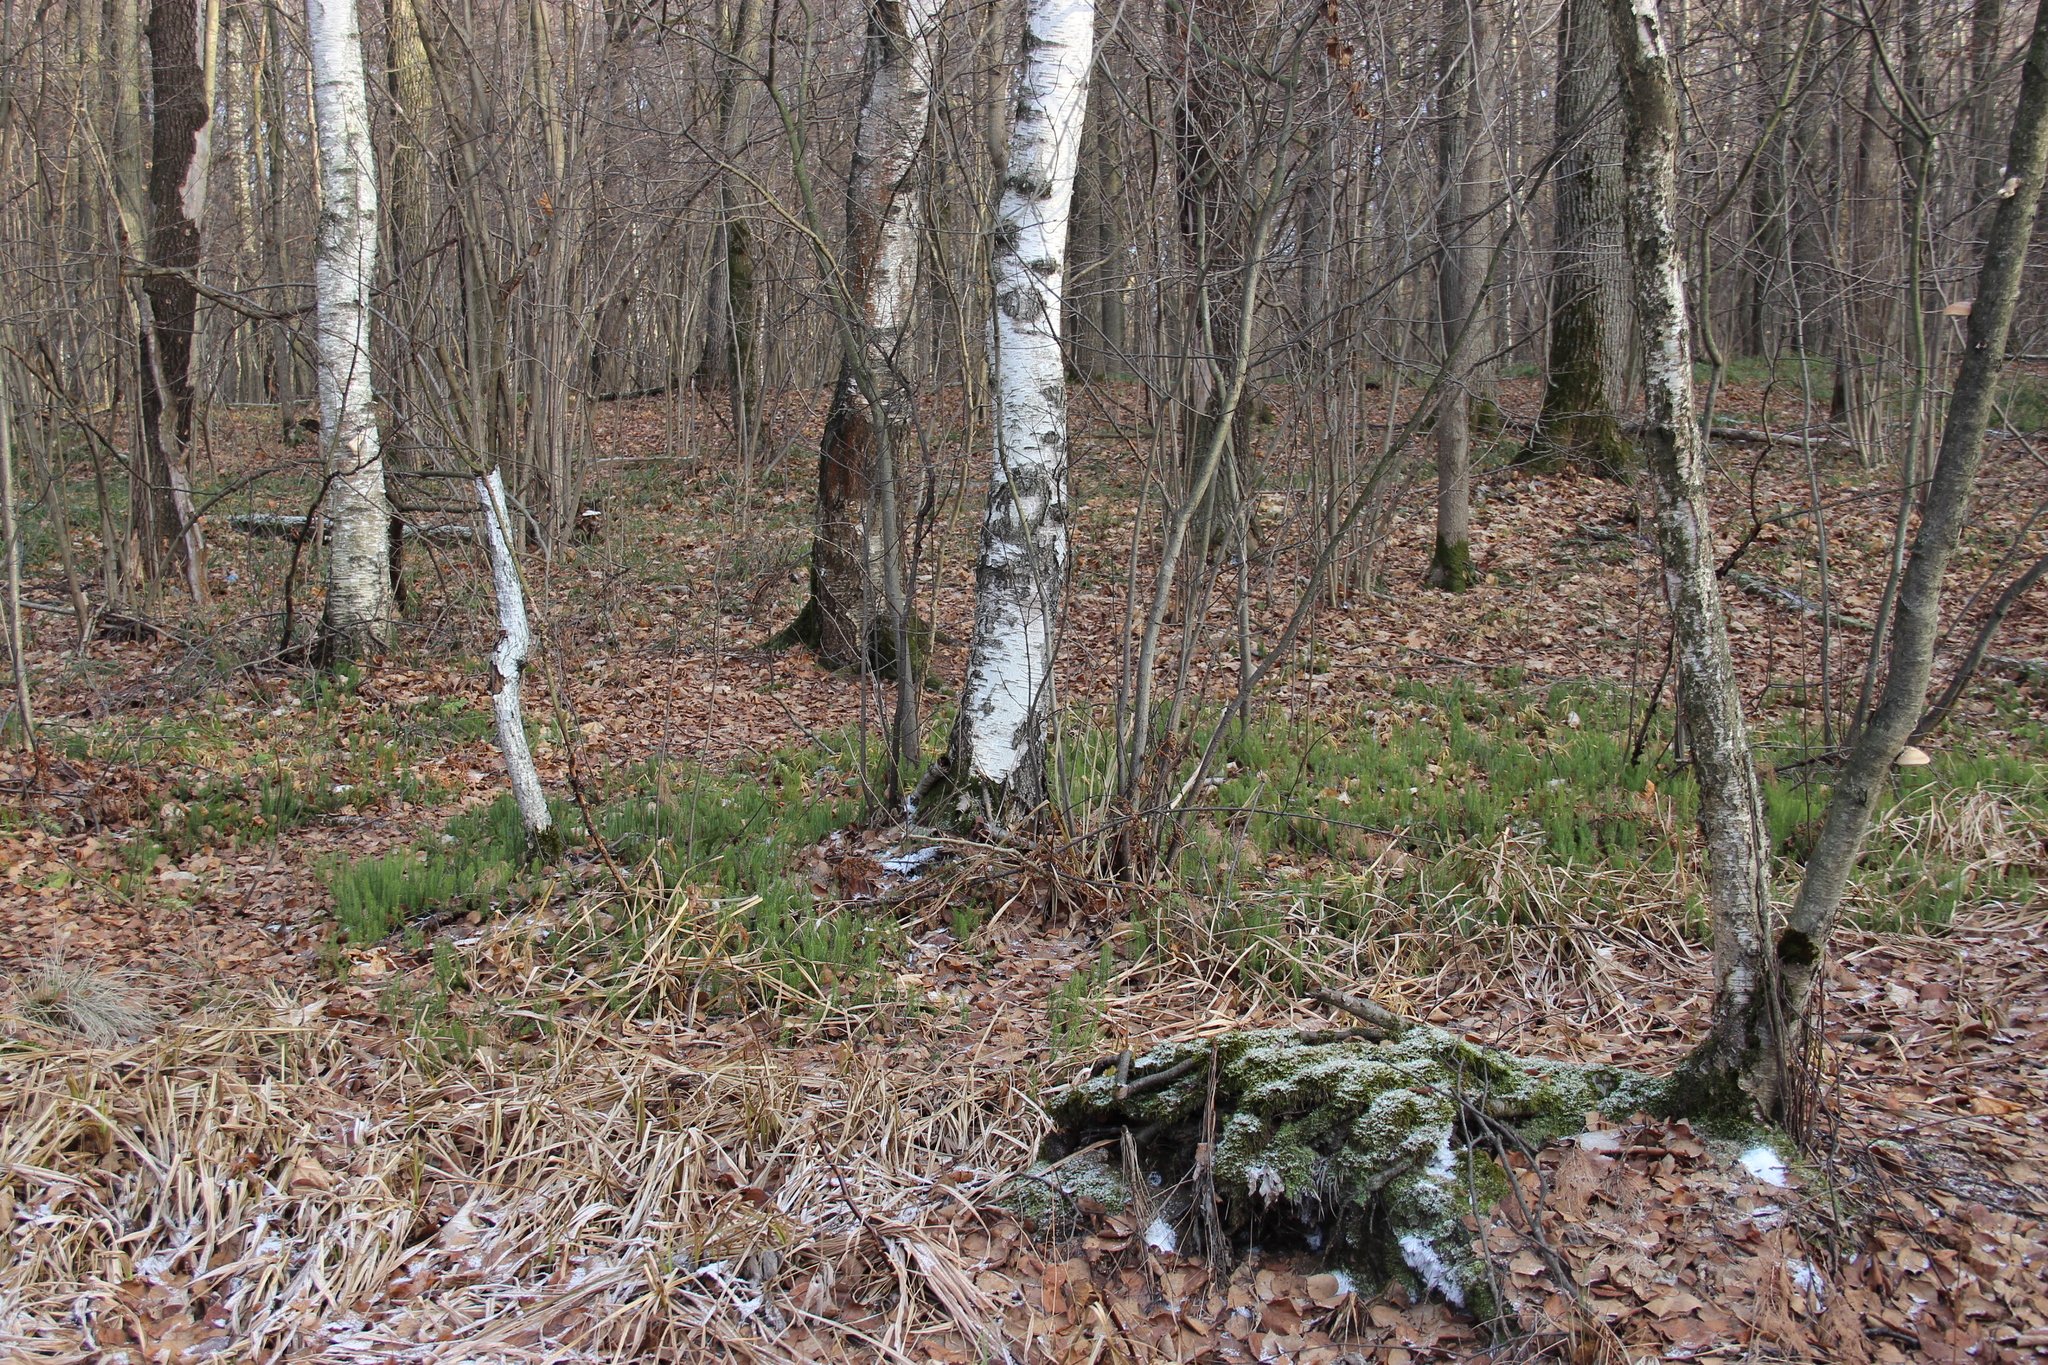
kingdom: Plantae
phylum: Tracheophyta
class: Lycopodiopsida
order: Lycopodiales
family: Lycopodiaceae
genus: Spinulum
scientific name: Spinulum annotinum
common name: Interrupted club-moss
